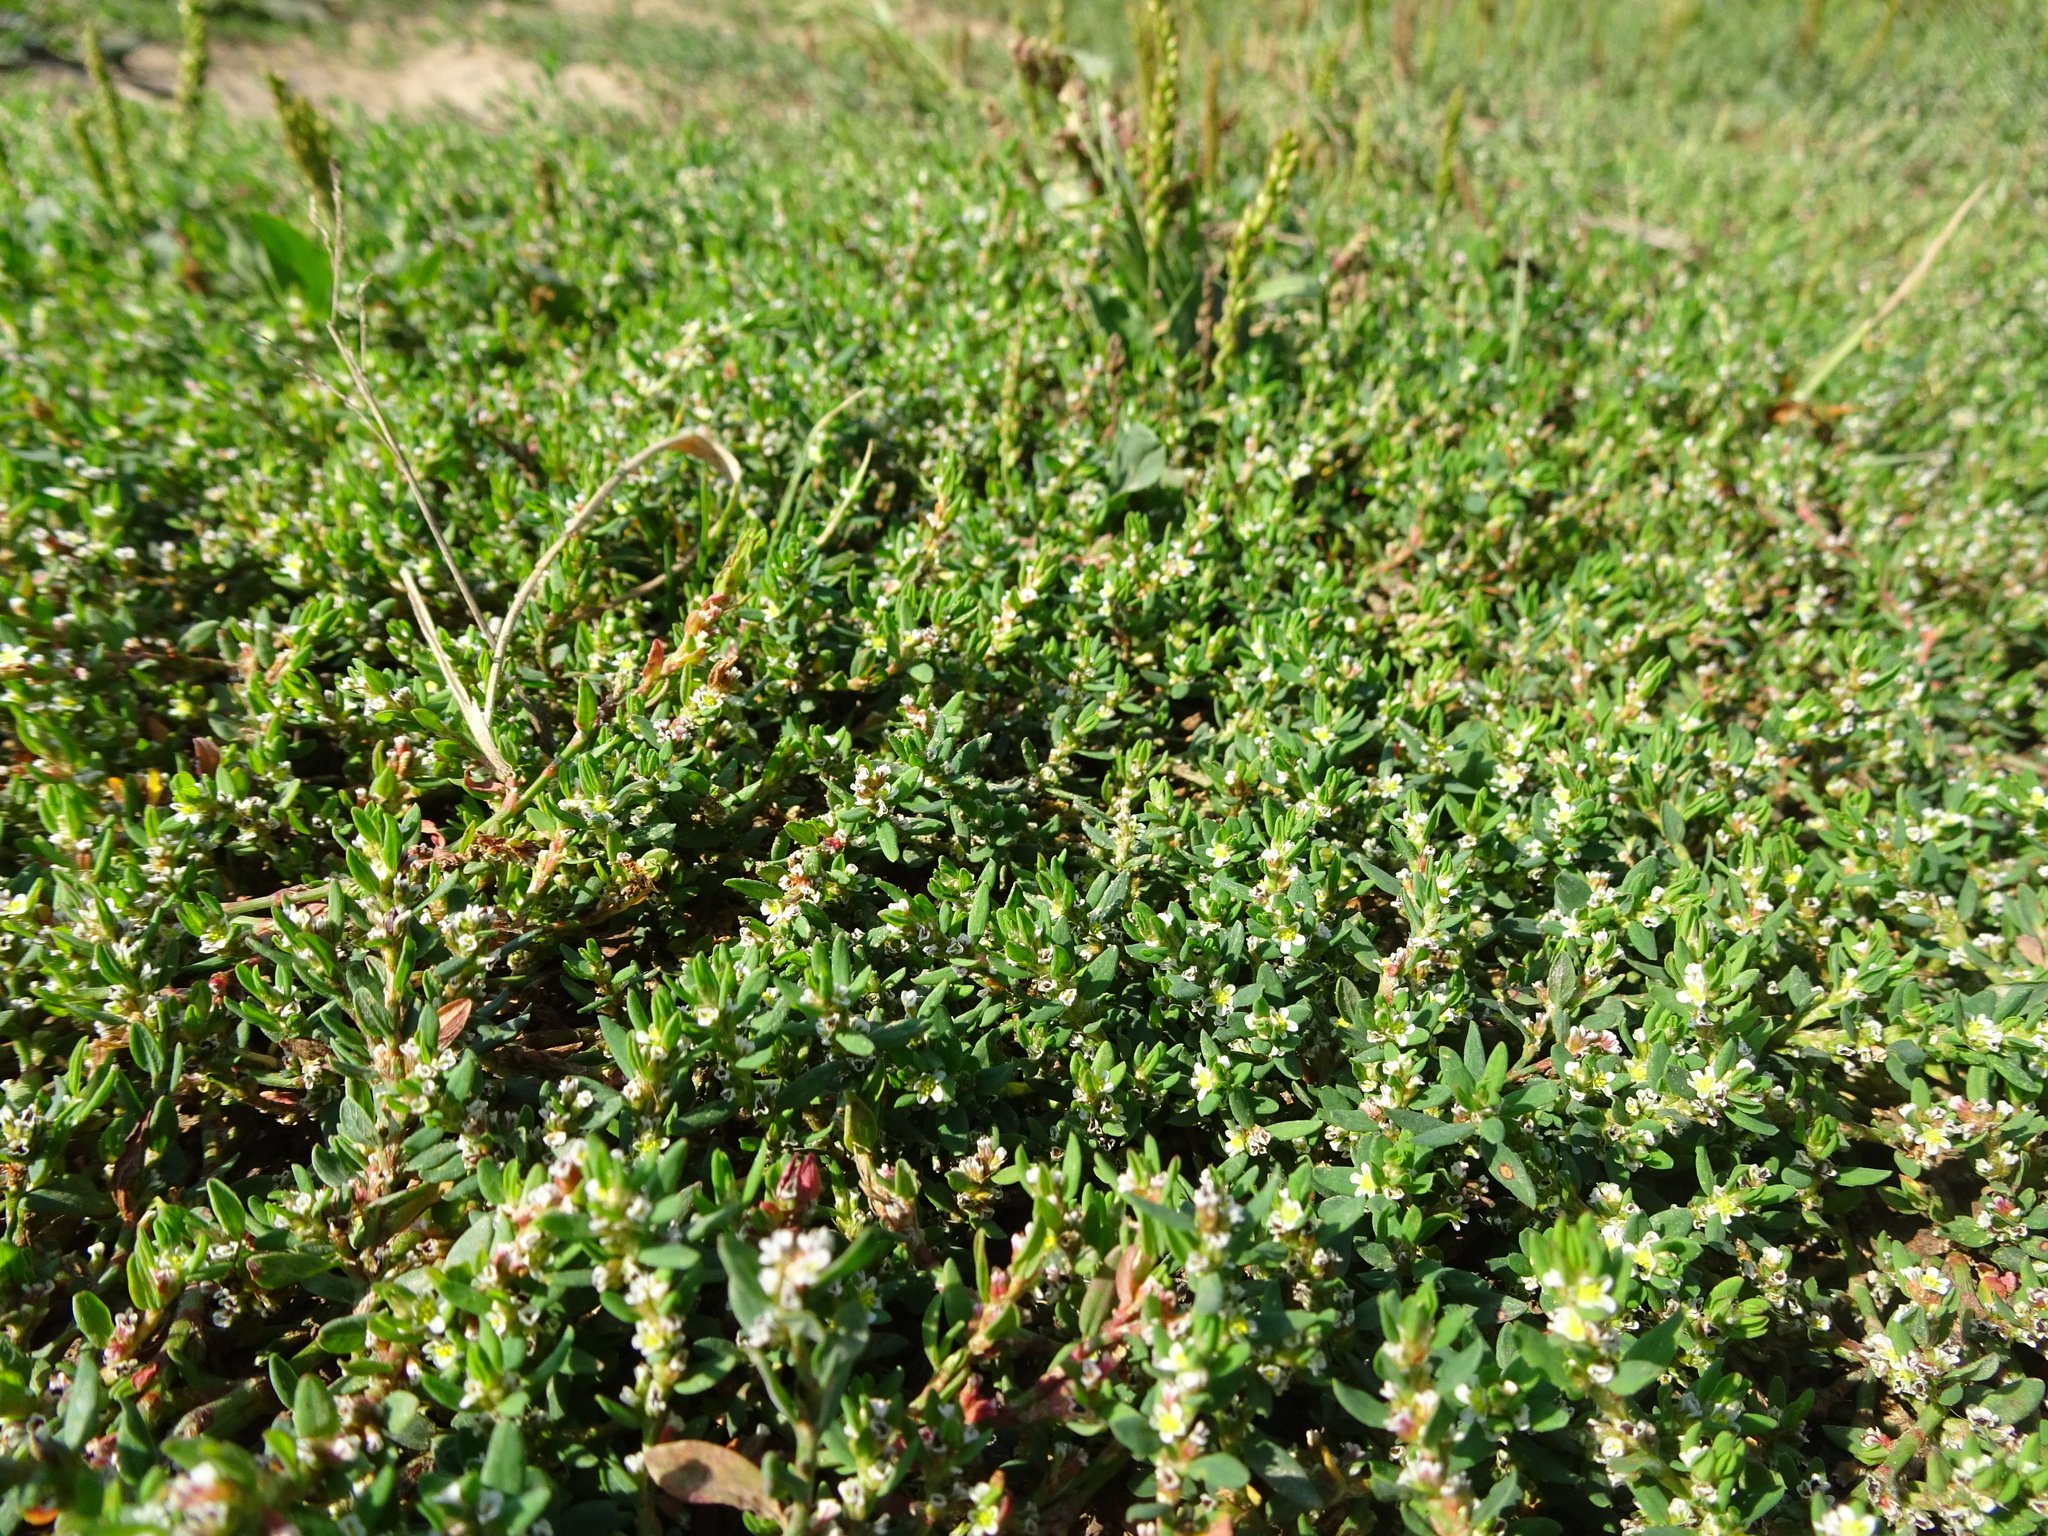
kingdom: Plantae
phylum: Tracheophyta
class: Magnoliopsida
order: Caryophyllales
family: Polygonaceae
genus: Polygonum
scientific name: Polygonum arenastrum
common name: Equal-leaved knotgrass
